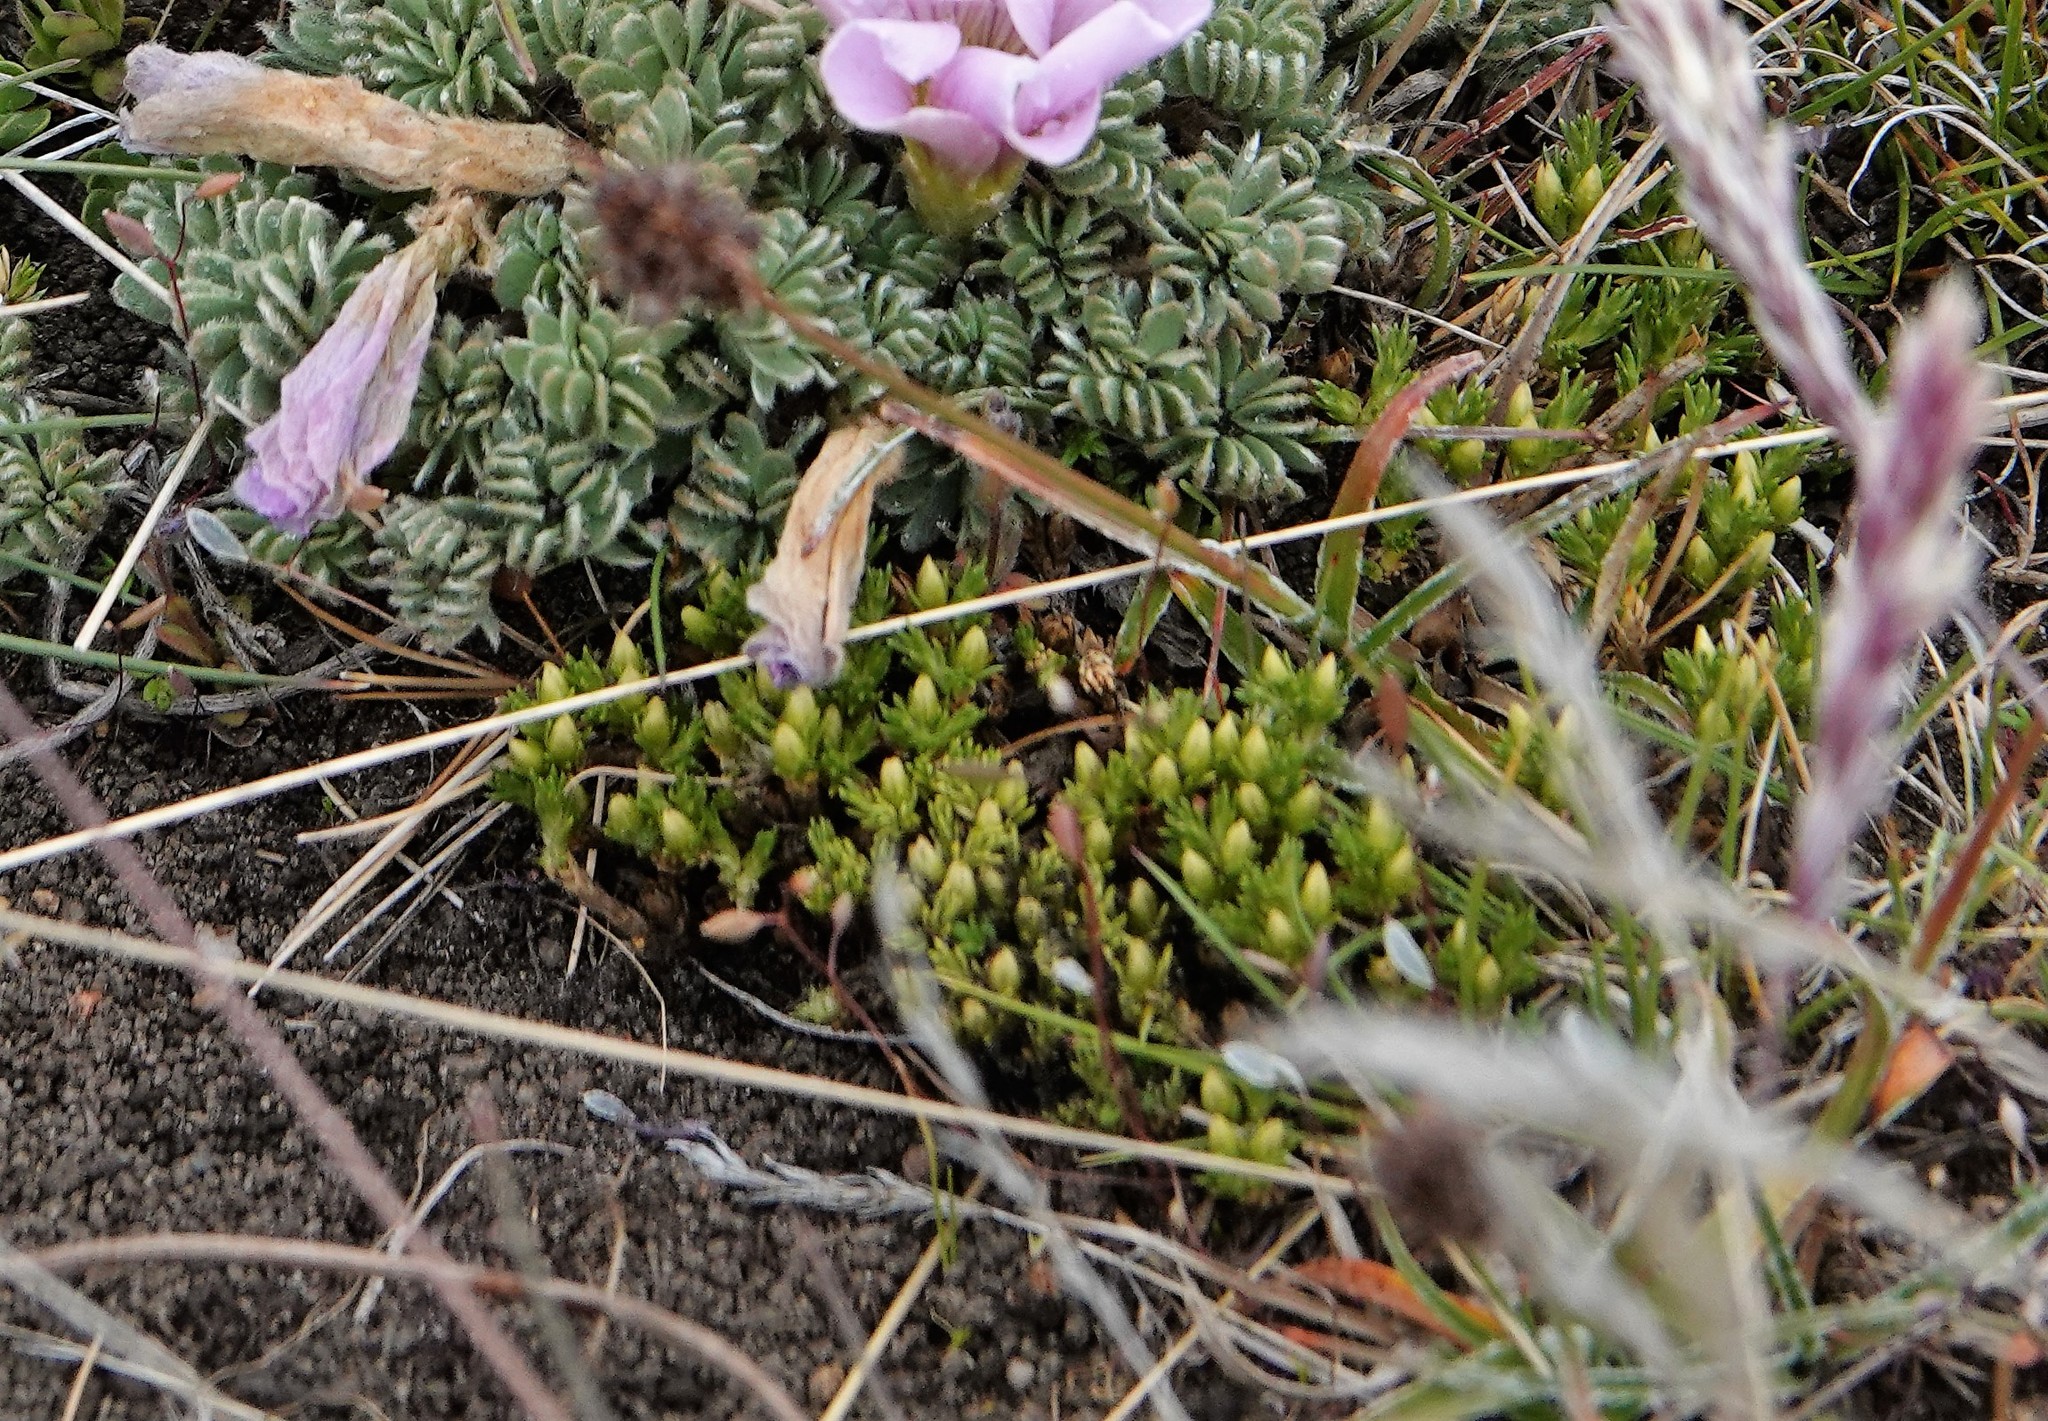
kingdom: Plantae
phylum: Tracheophyta
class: Magnoliopsida
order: Caryophyllales
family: Caryophyllaceae
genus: Colobanthus
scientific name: Colobanthus lycopodioides
